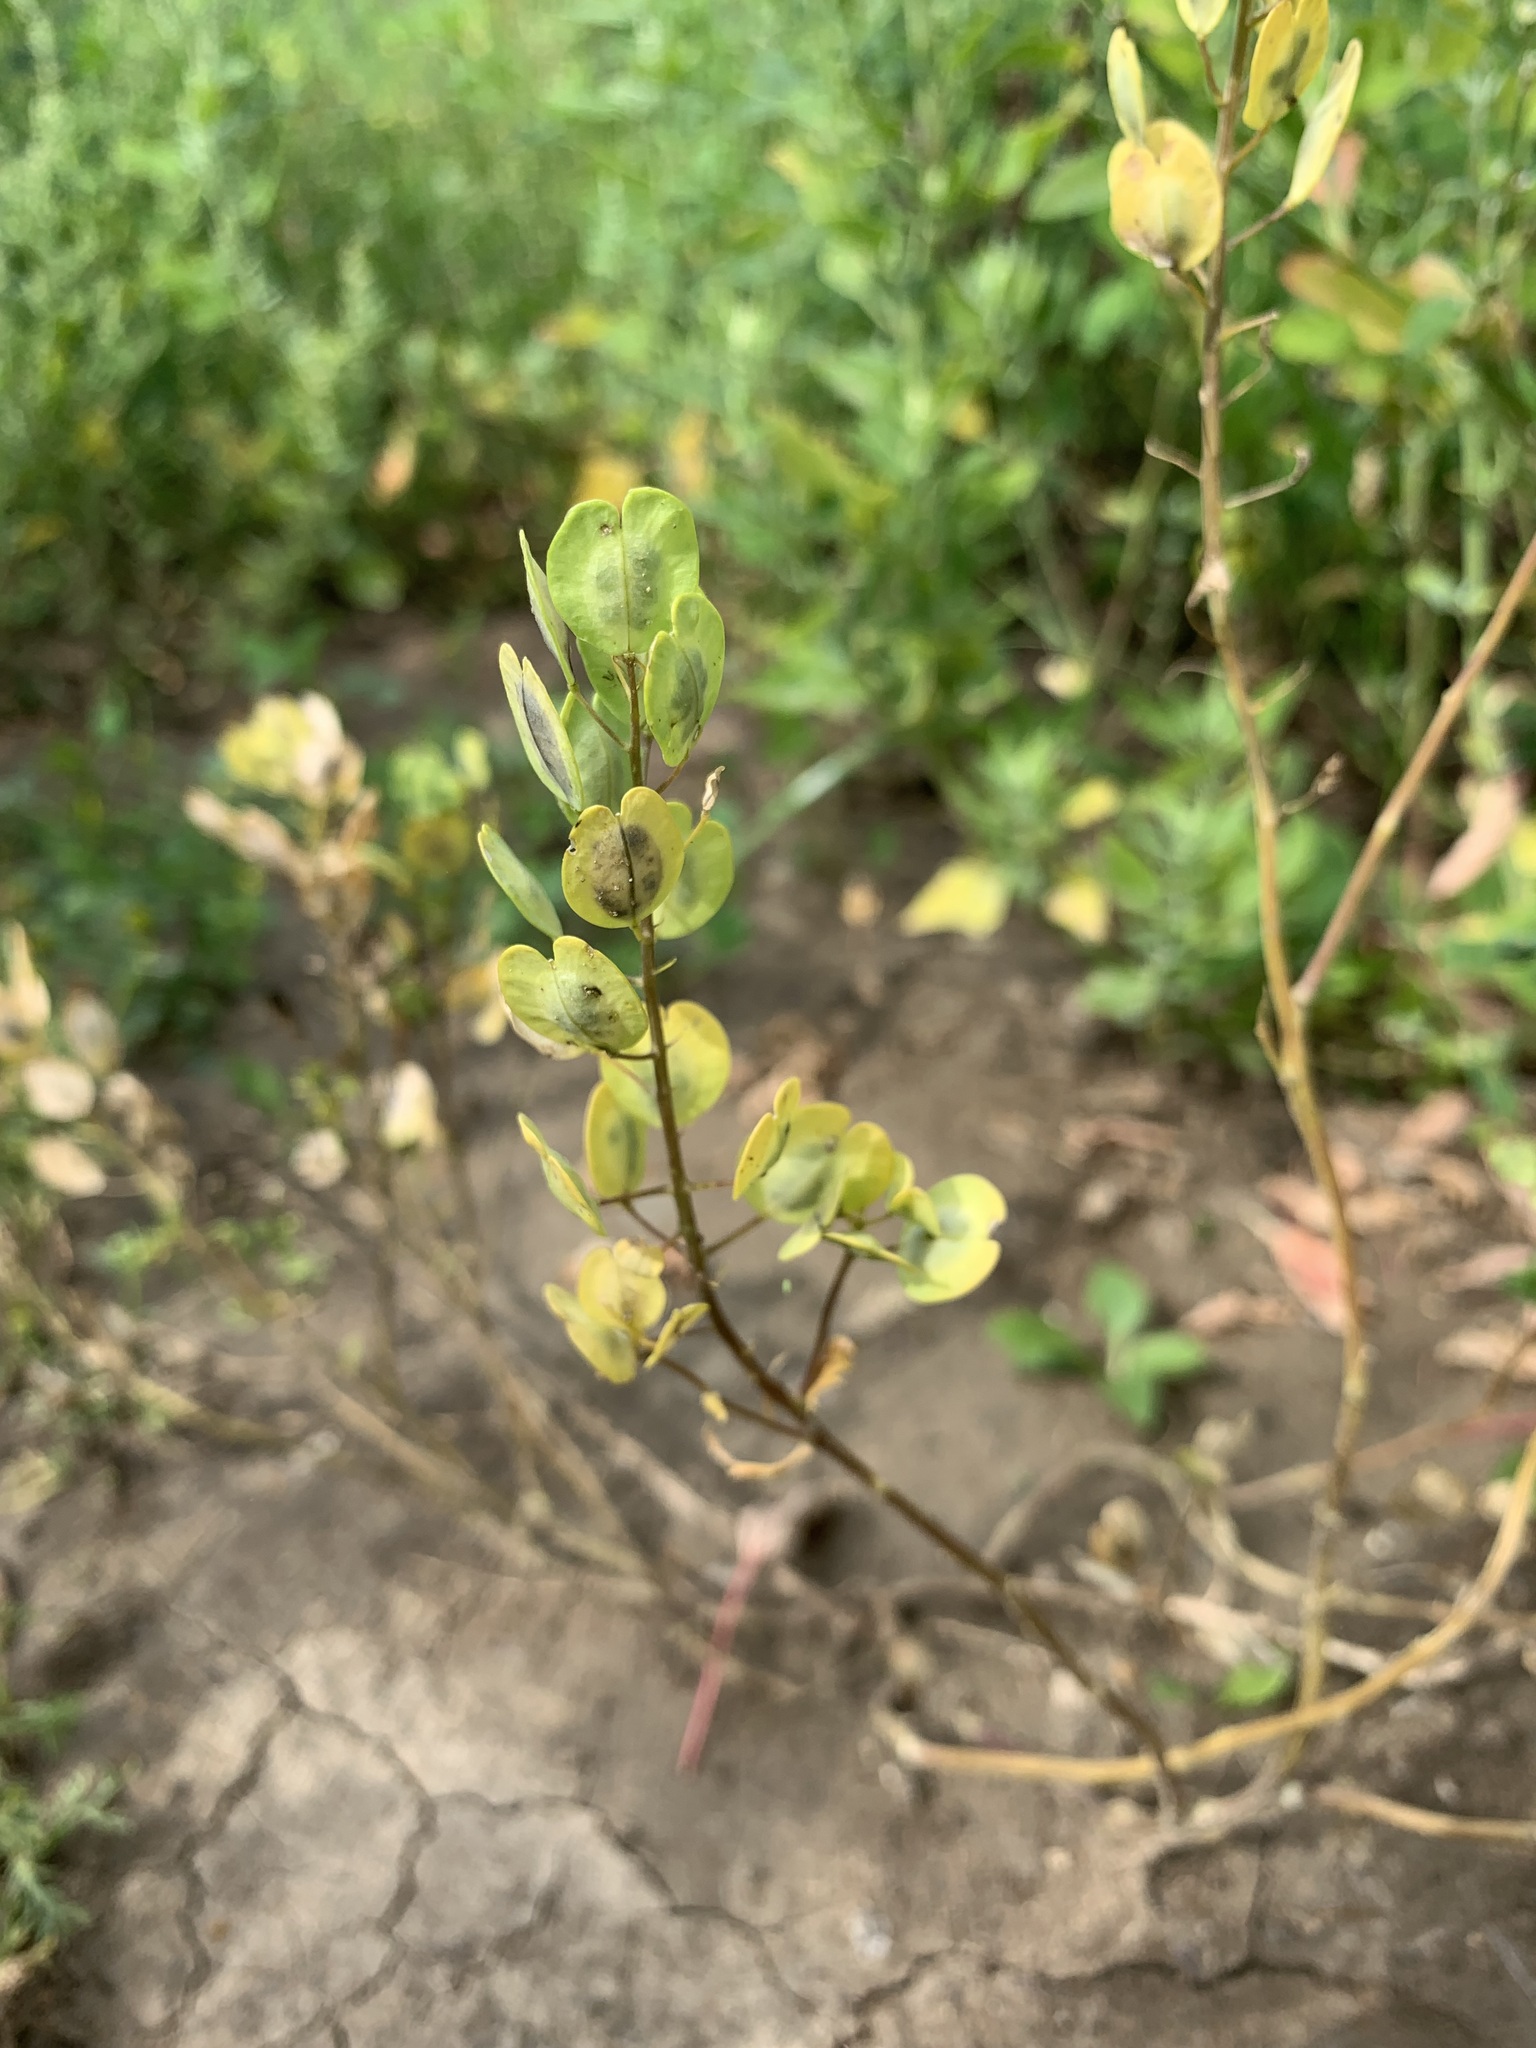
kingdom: Plantae
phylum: Tracheophyta
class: Magnoliopsida
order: Brassicales
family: Brassicaceae
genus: Thlaspi
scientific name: Thlaspi arvense
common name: Field pennycress
